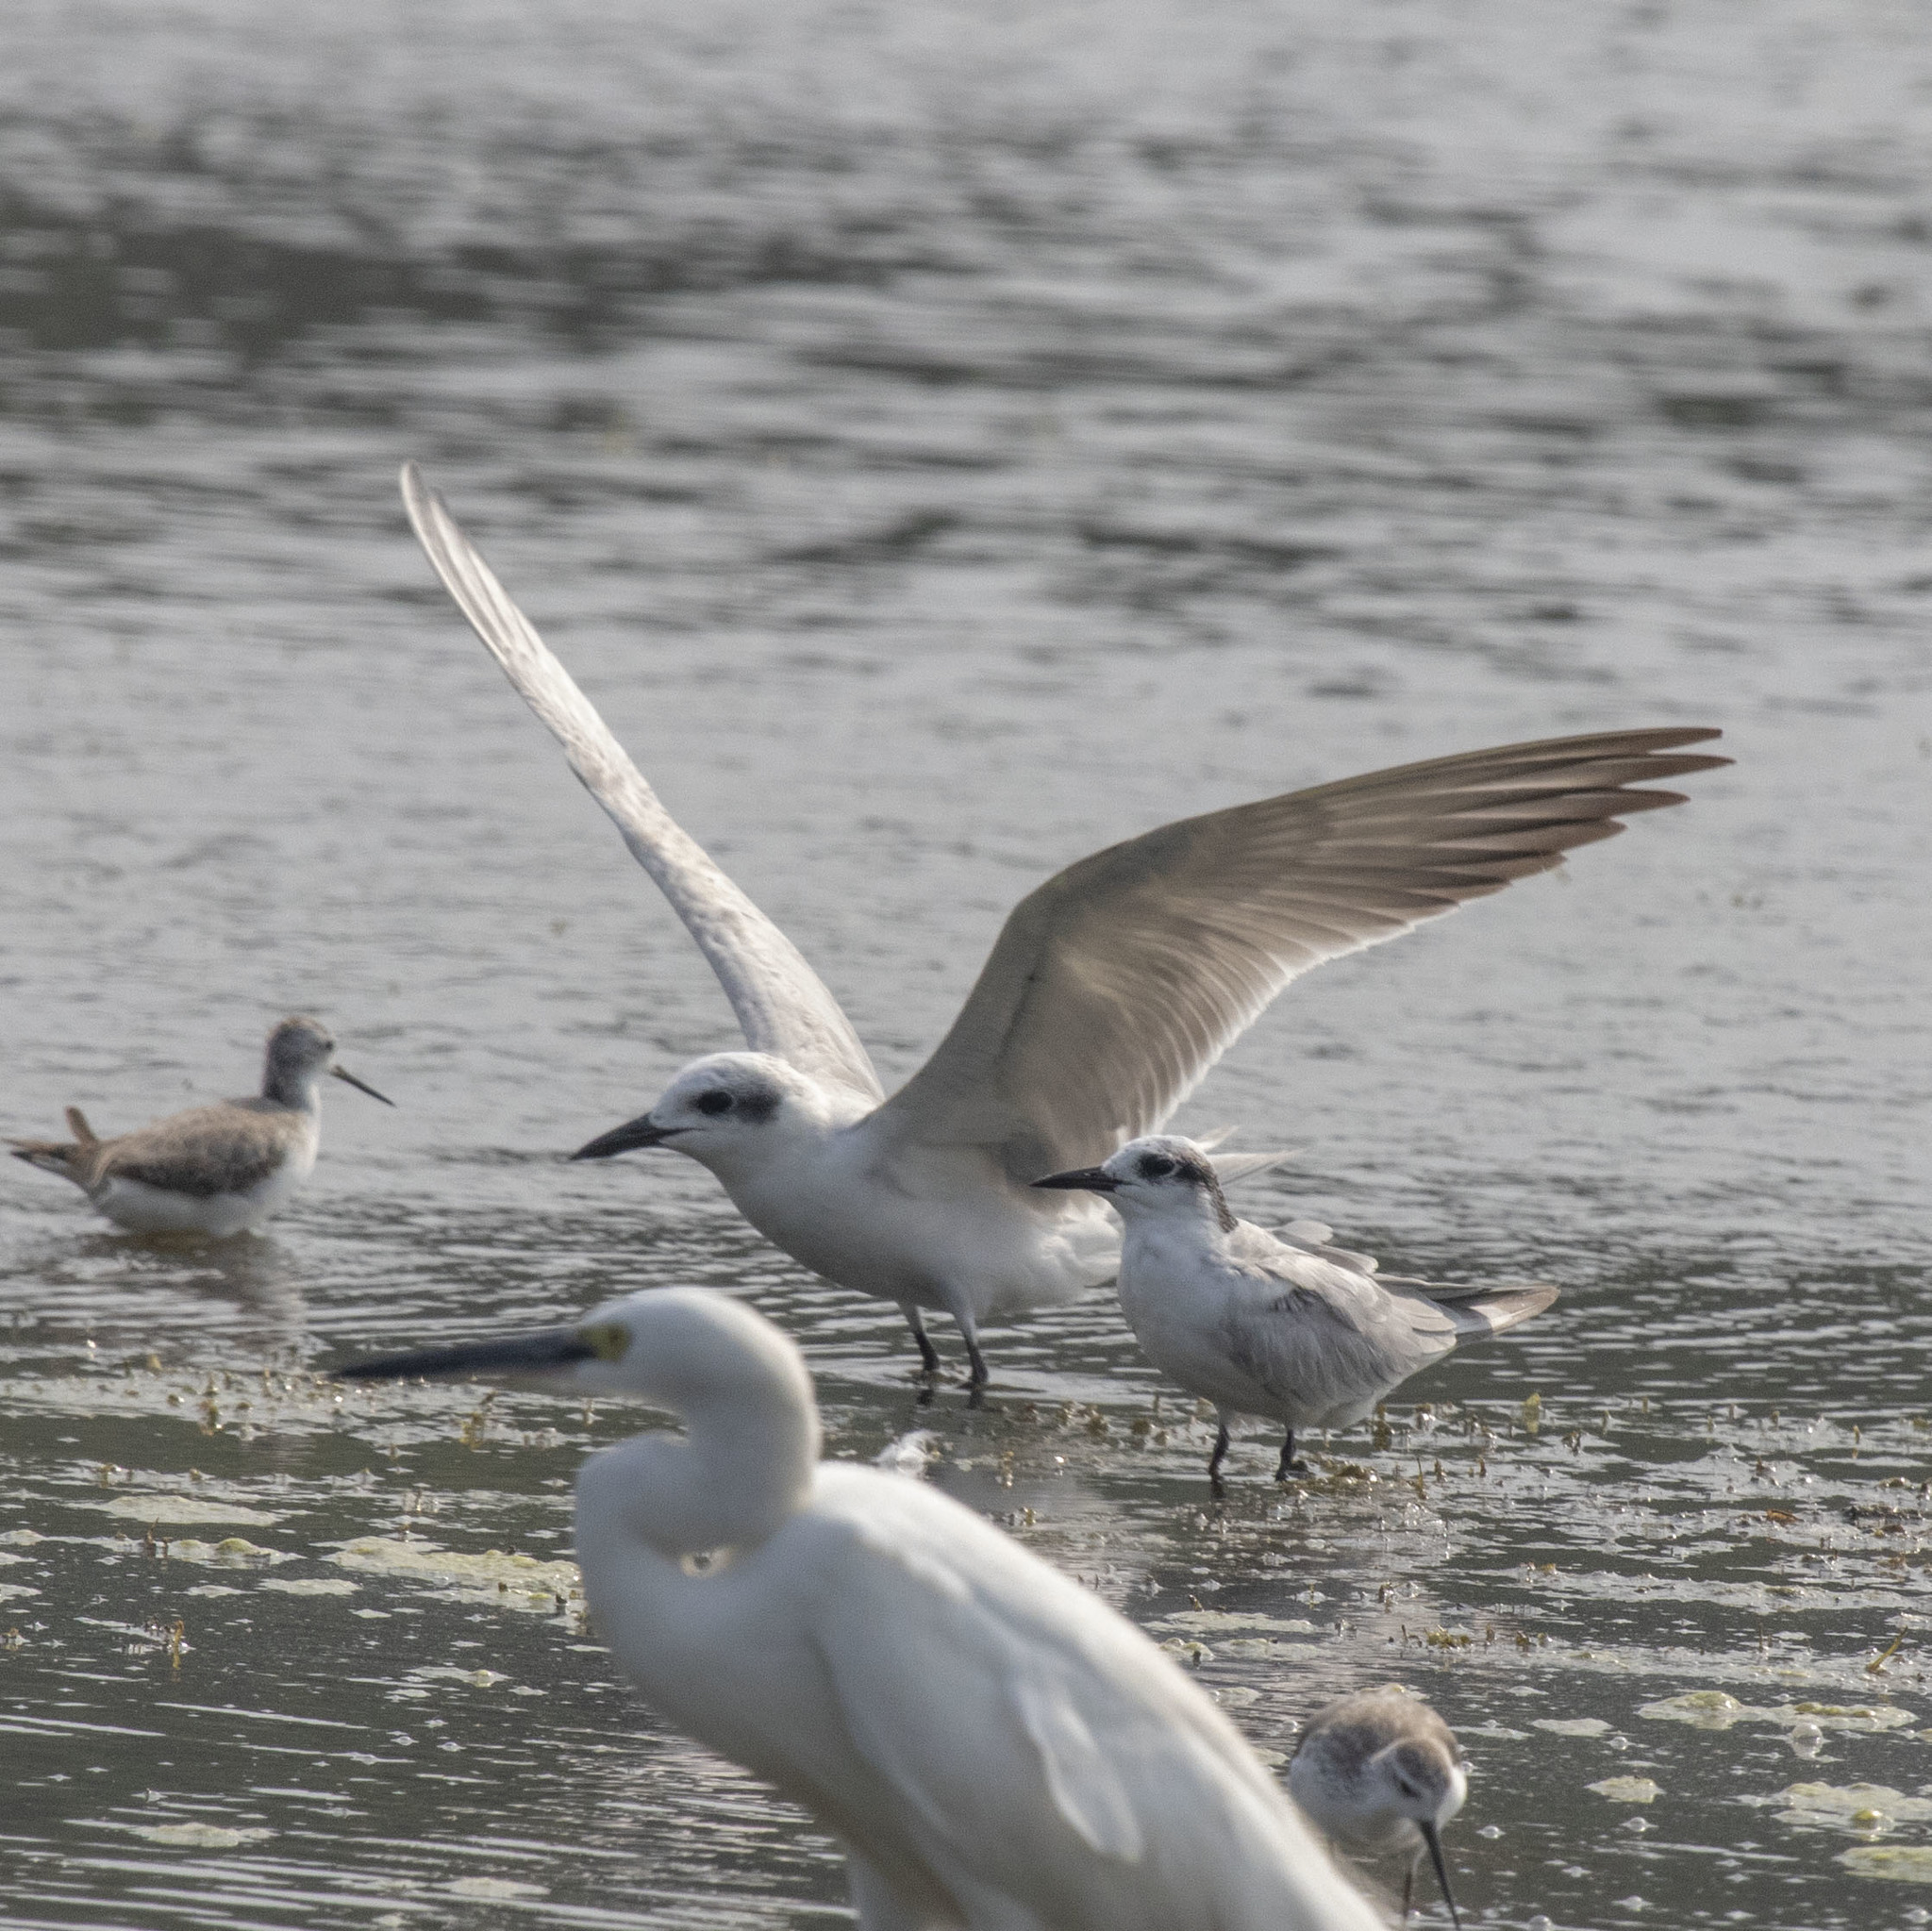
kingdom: Animalia
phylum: Chordata
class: Aves
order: Charadriiformes
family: Laridae
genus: Gelochelidon
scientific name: Gelochelidon nilotica
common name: Gull-billed tern
